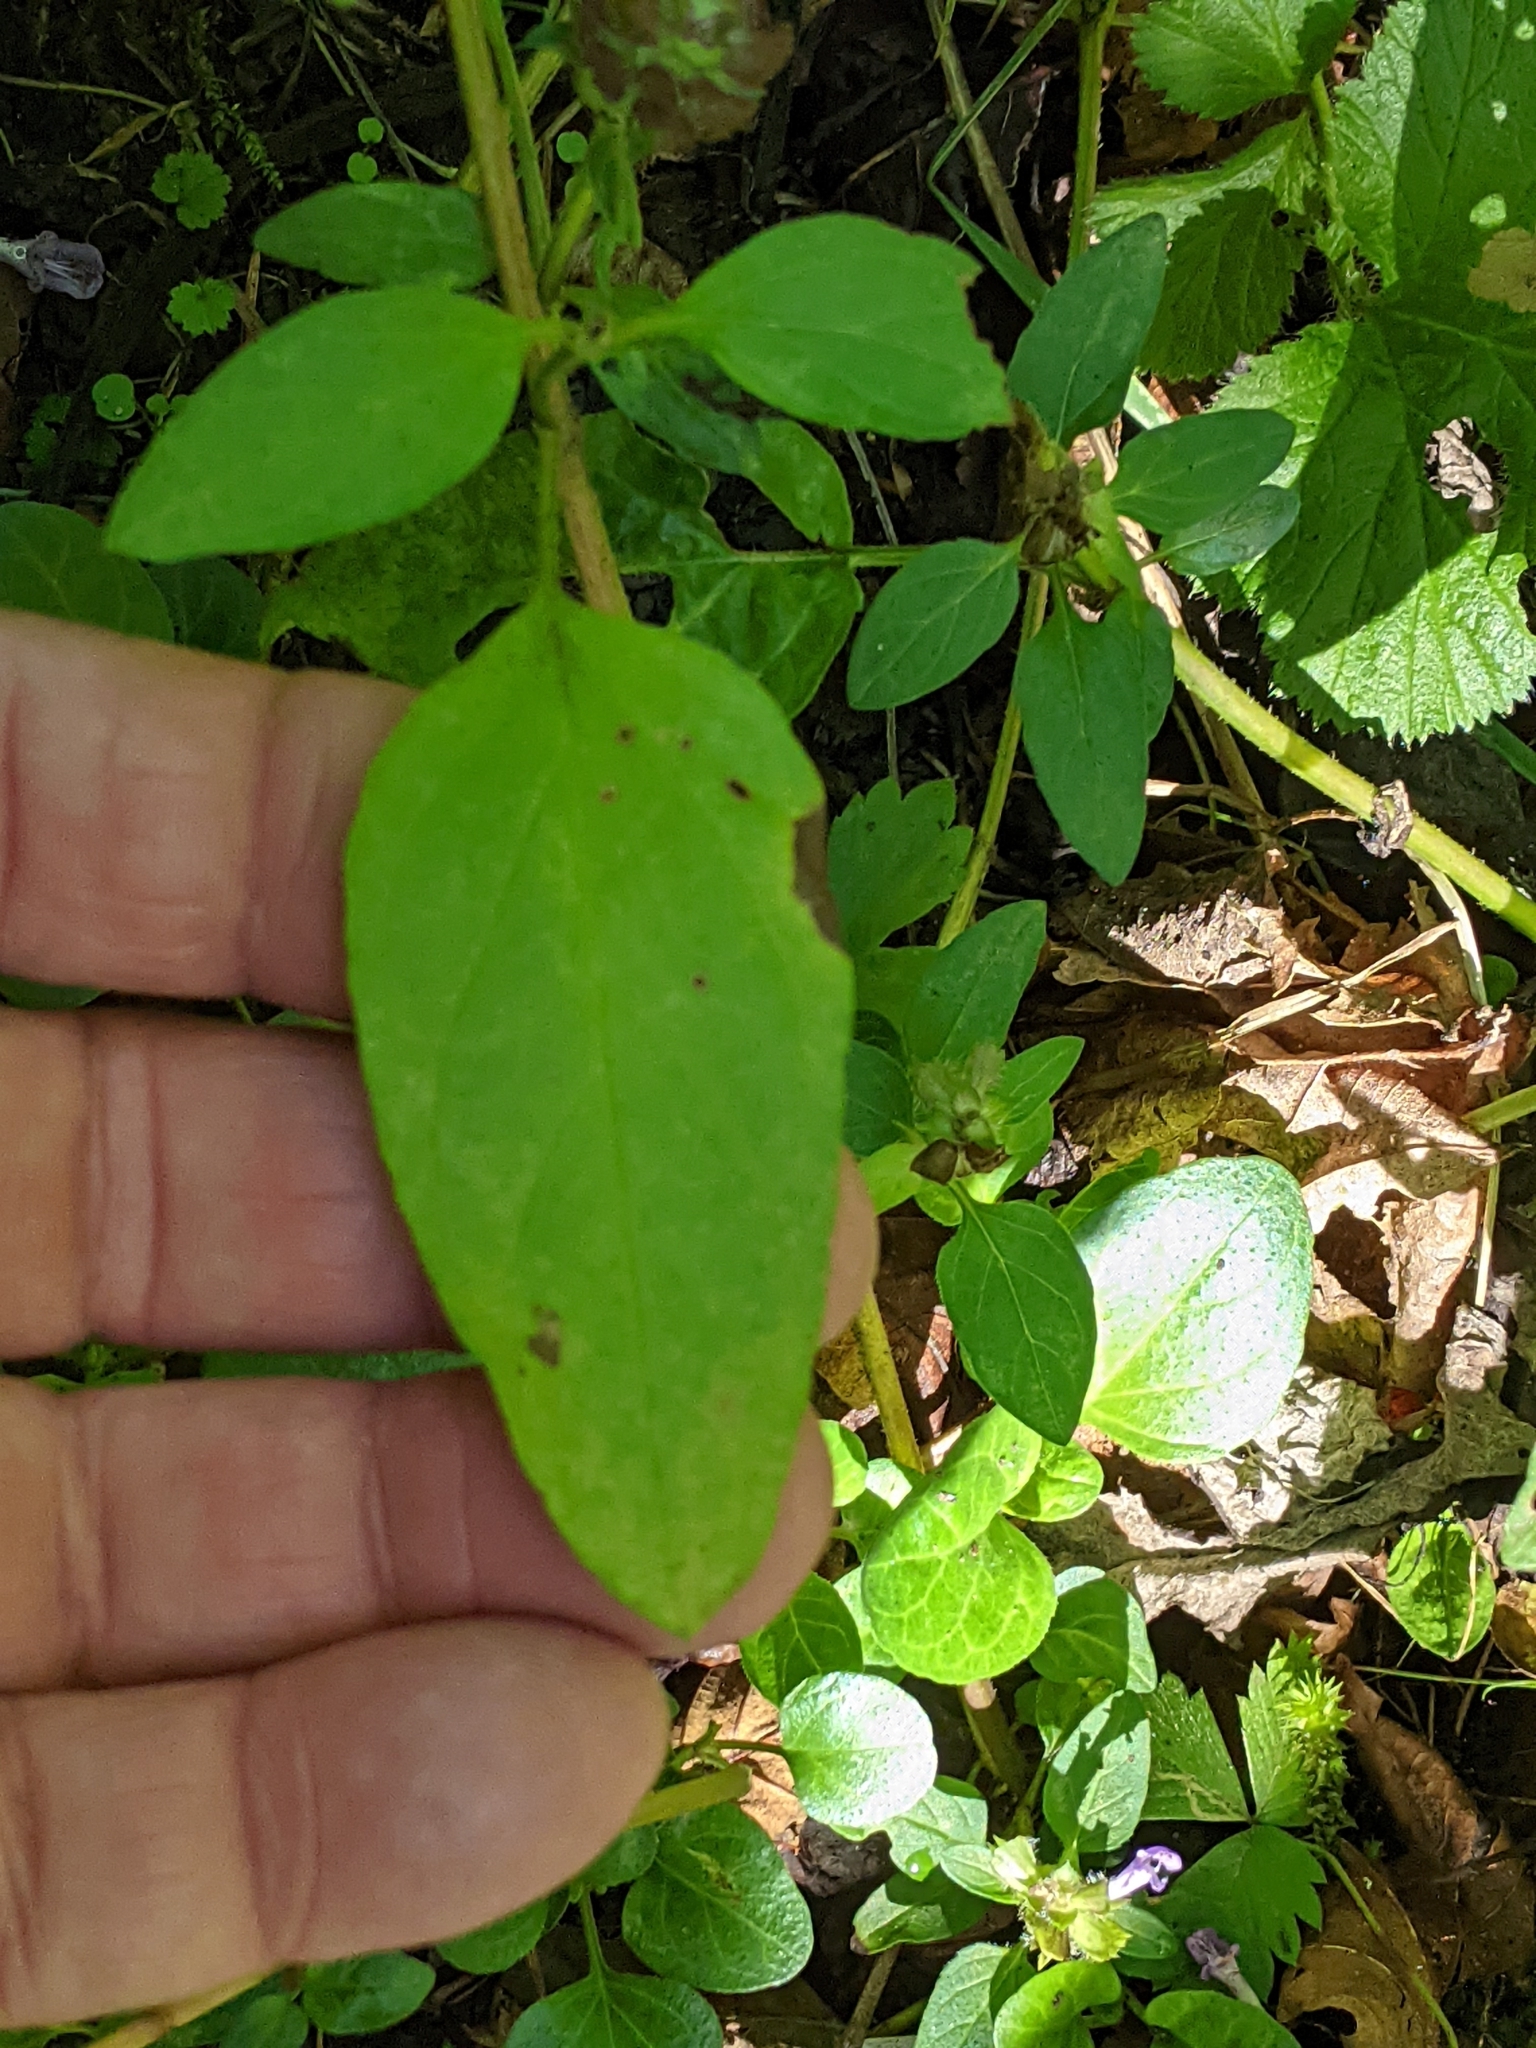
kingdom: Plantae
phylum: Tracheophyta
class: Magnoliopsida
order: Lamiales
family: Lamiaceae
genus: Prunella
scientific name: Prunella vulgaris
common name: Heal-all
